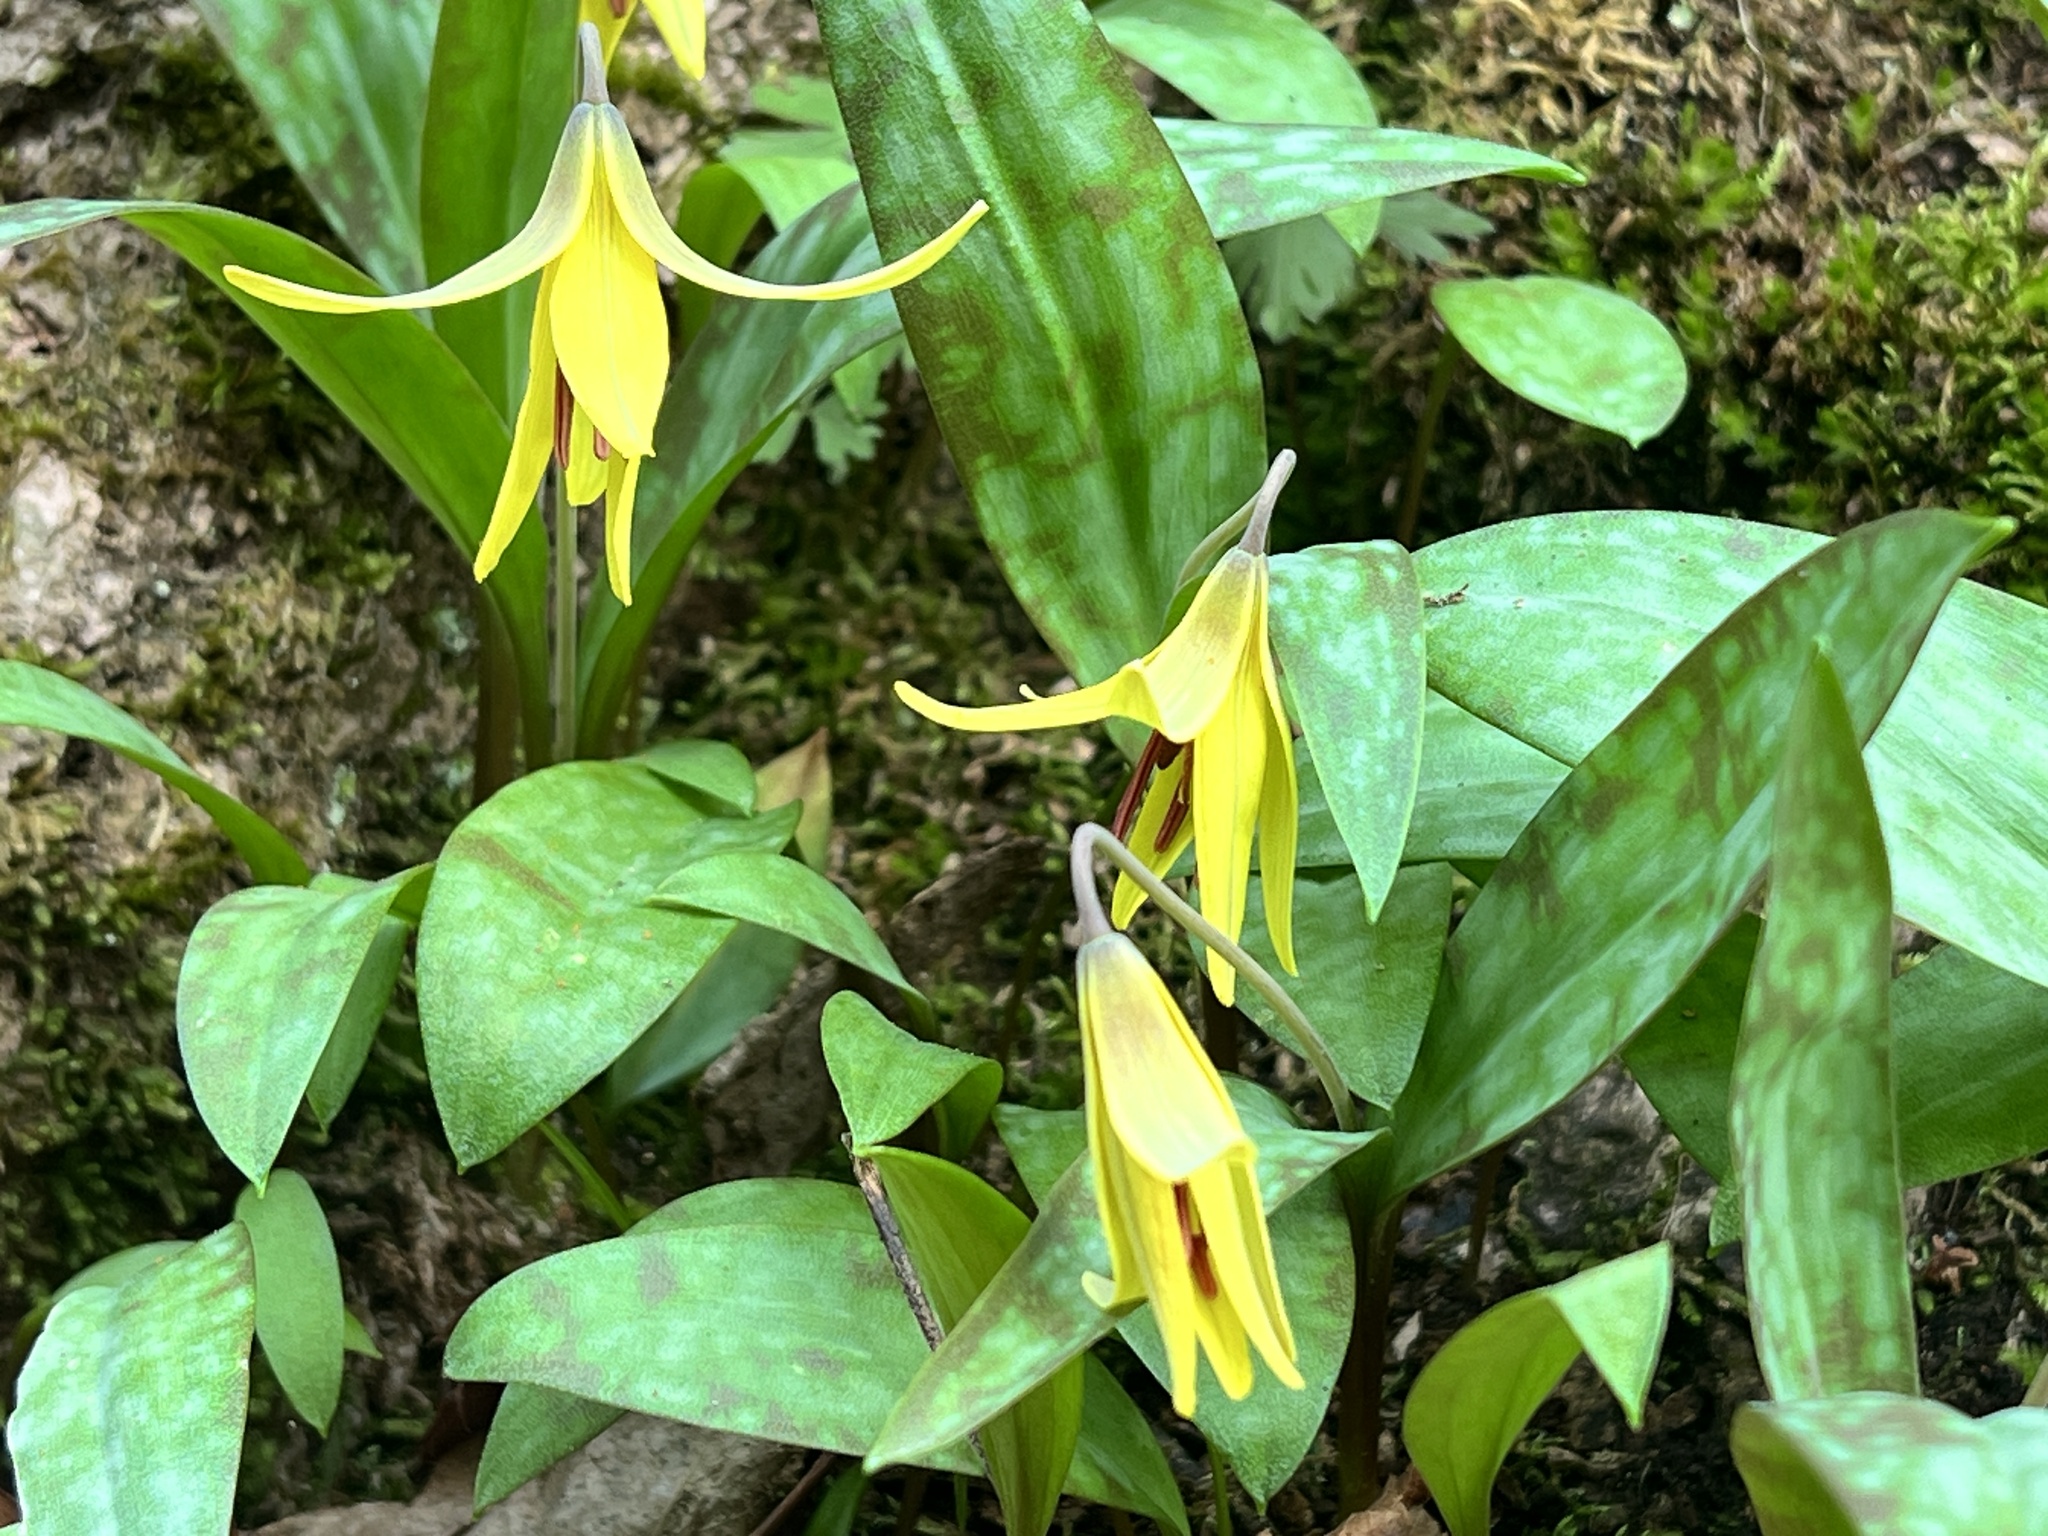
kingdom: Plantae
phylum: Tracheophyta
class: Liliopsida
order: Liliales
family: Liliaceae
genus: Erythronium
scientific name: Erythronium americanum
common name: Yellow adder's-tongue
